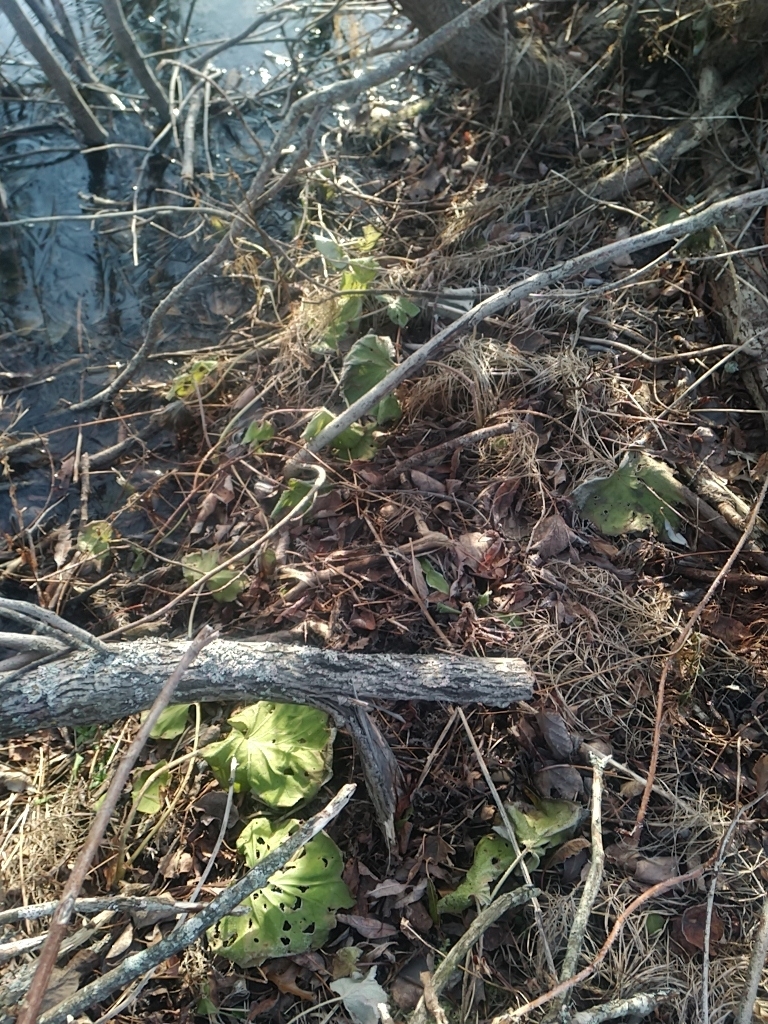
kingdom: Plantae
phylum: Tracheophyta
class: Magnoliopsida
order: Asterales
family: Asteraceae
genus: Tussilago
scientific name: Tussilago farfara
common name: Coltsfoot
